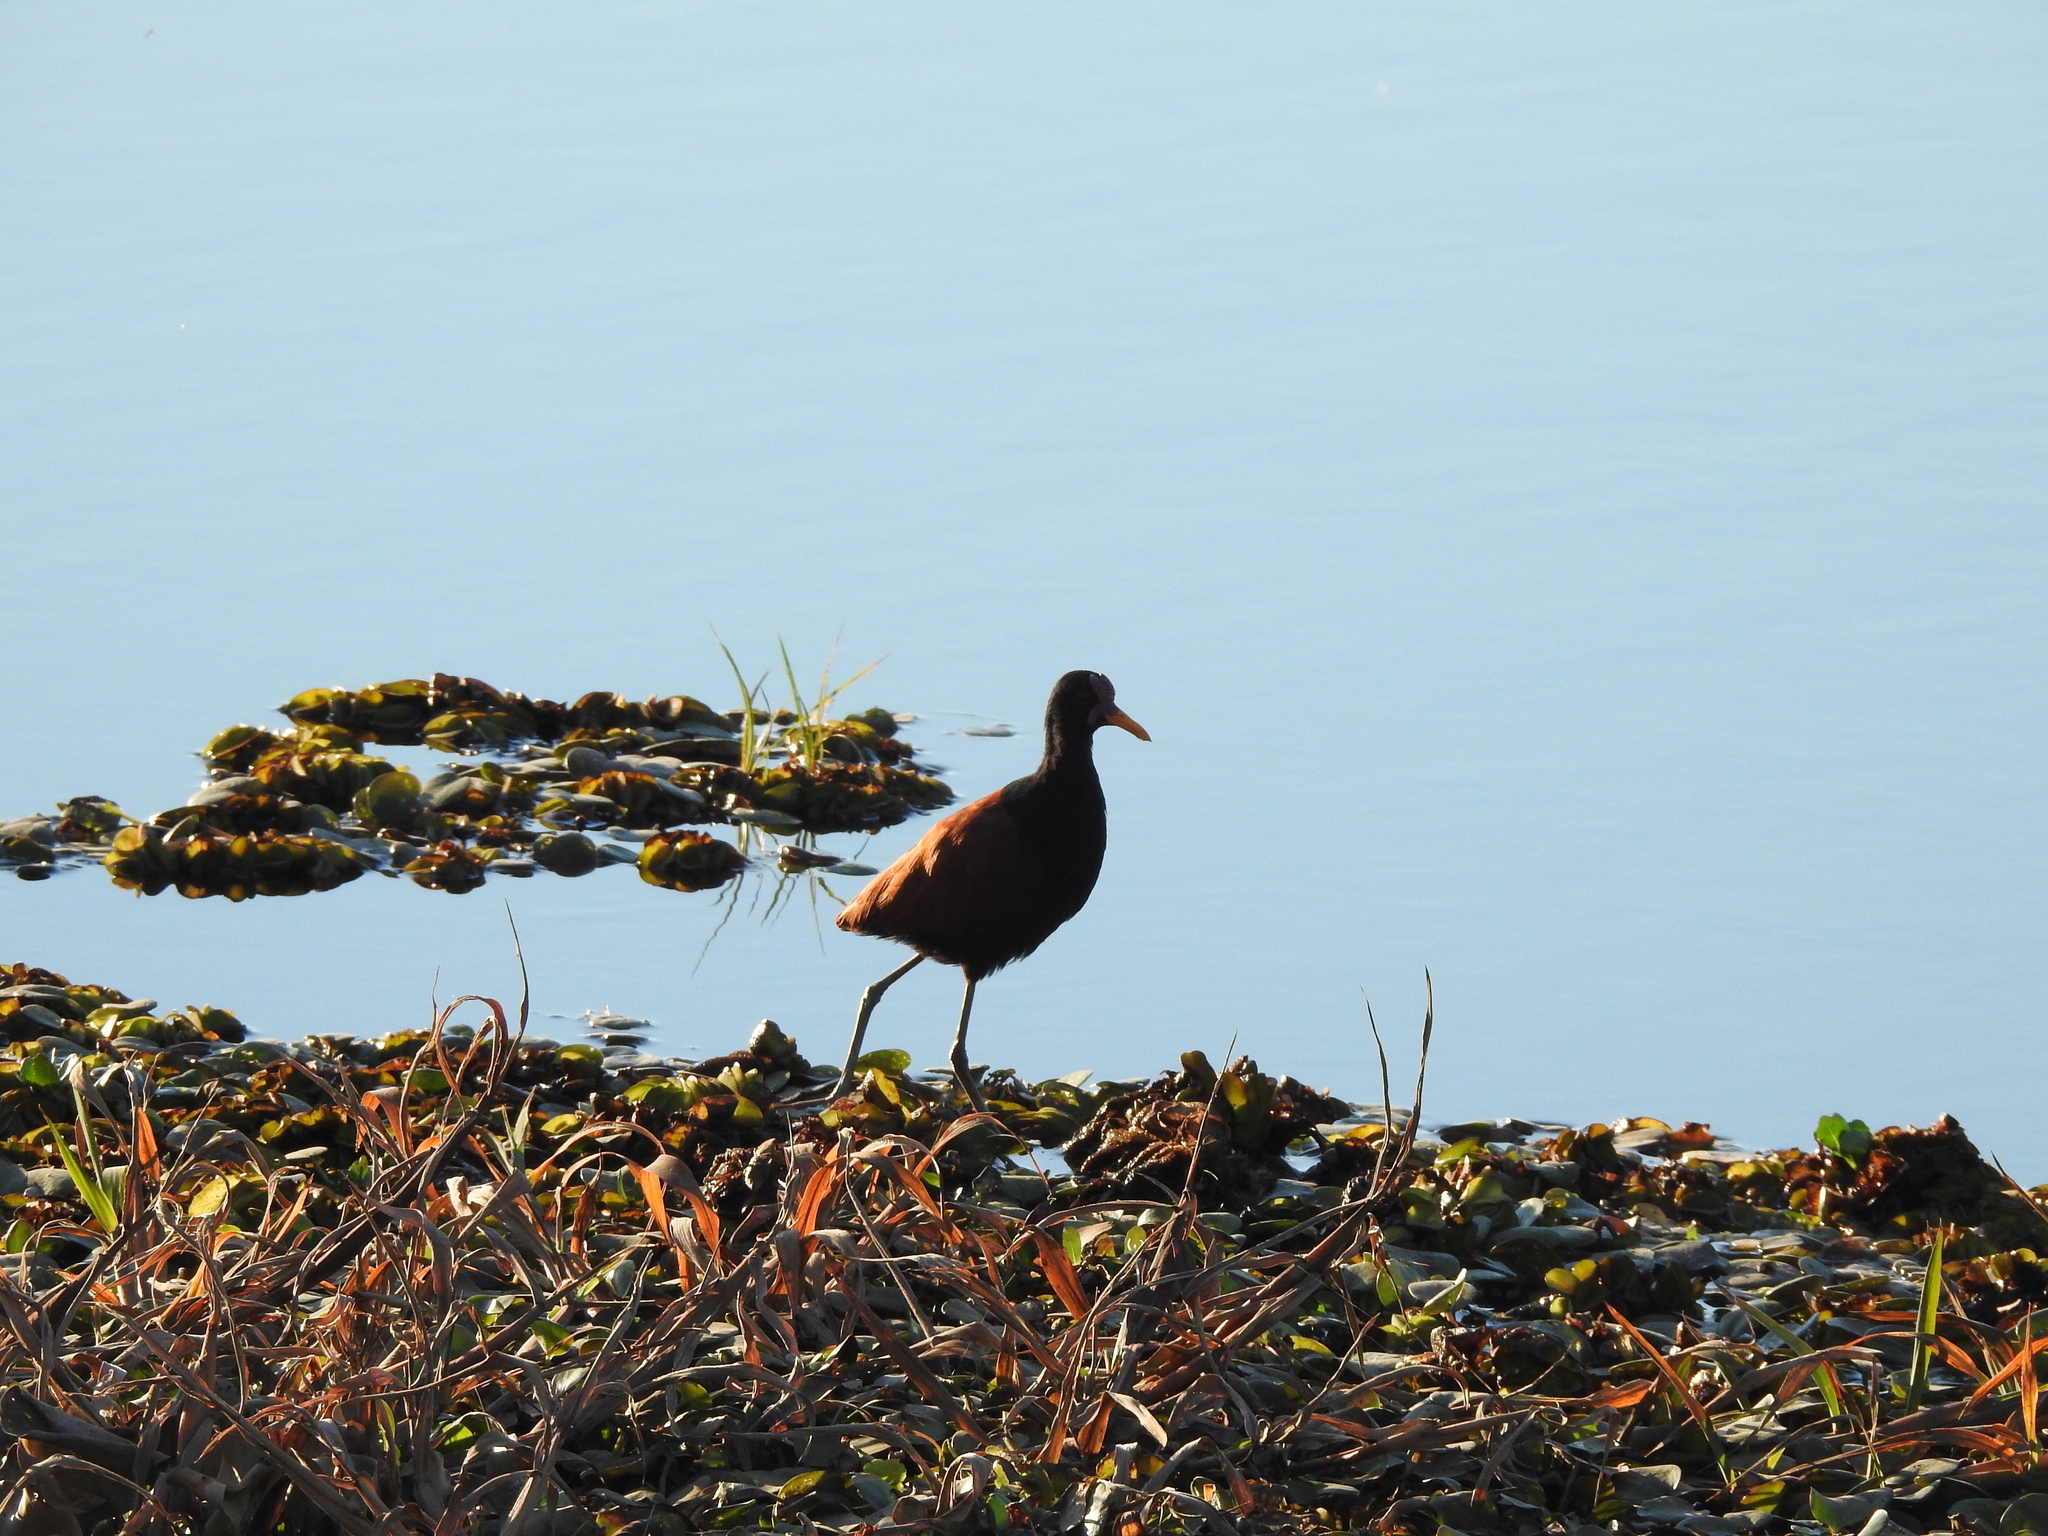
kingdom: Animalia
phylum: Chordata
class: Aves
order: Charadriiformes
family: Jacanidae
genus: Jacana
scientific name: Jacana jacana
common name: Wattled jacana
